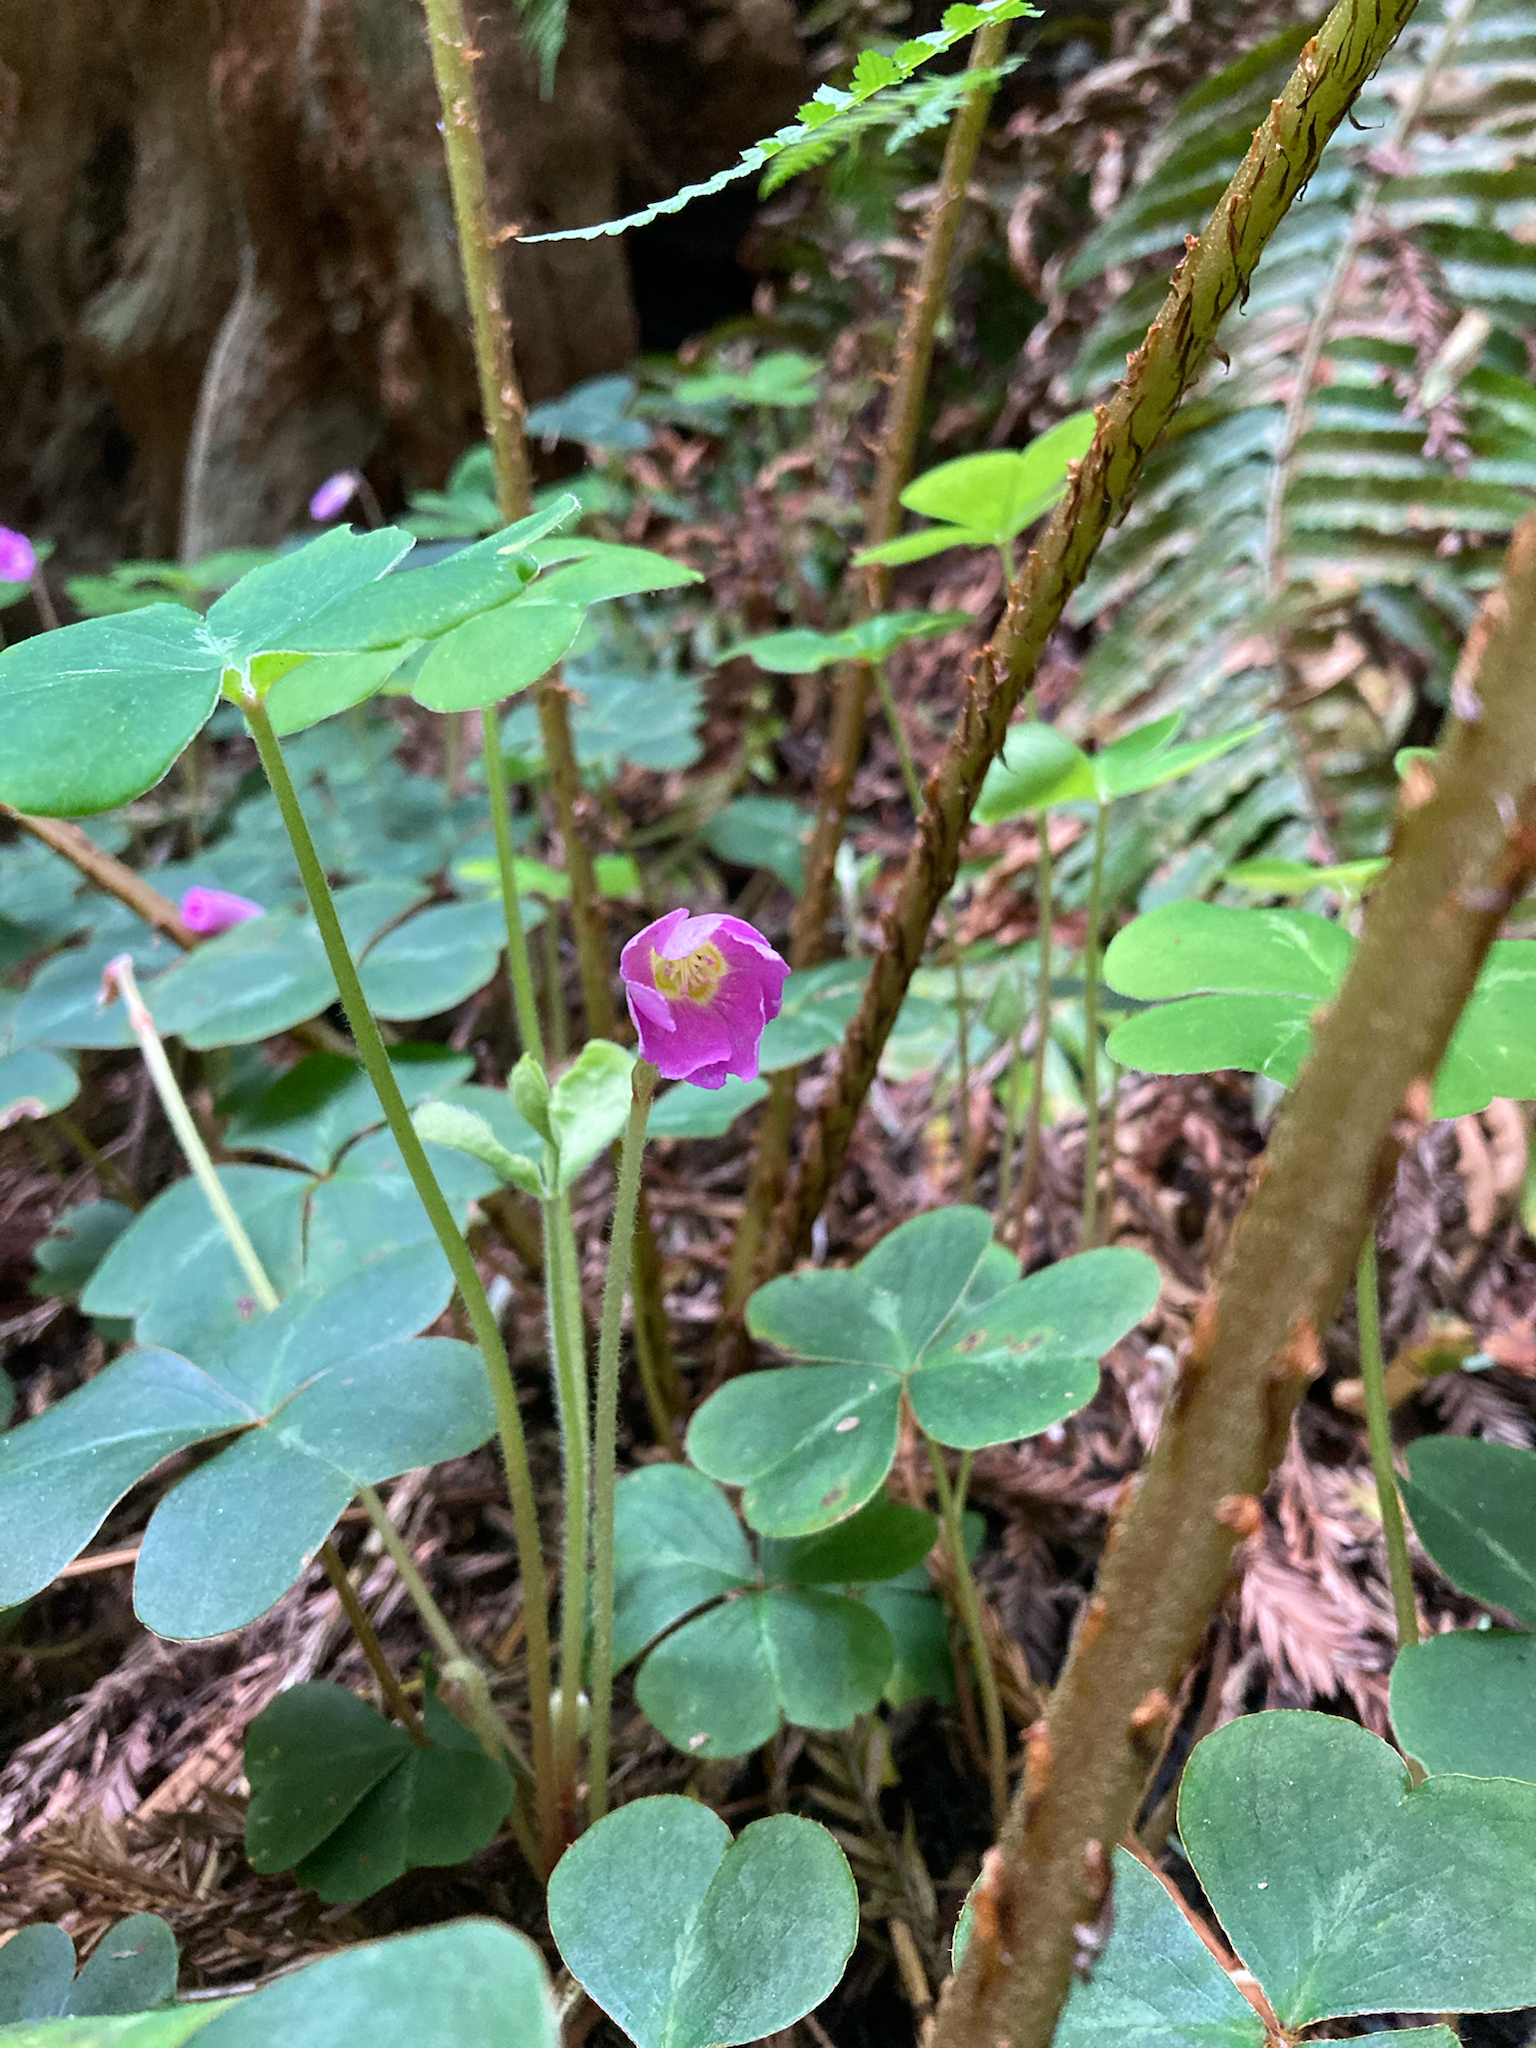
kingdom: Plantae
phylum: Tracheophyta
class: Magnoliopsida
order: Oxalidales
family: Oxalidaceae
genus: Oxalis
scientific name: Oxalis oregana
